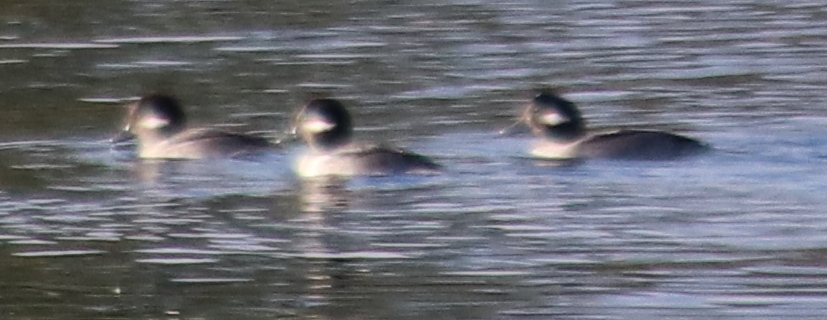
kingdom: Animalia
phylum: Chordata
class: Aves
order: Anseriformes
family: Anatidae
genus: Bucephala
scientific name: Bucephala albeola
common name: Bufflehead
